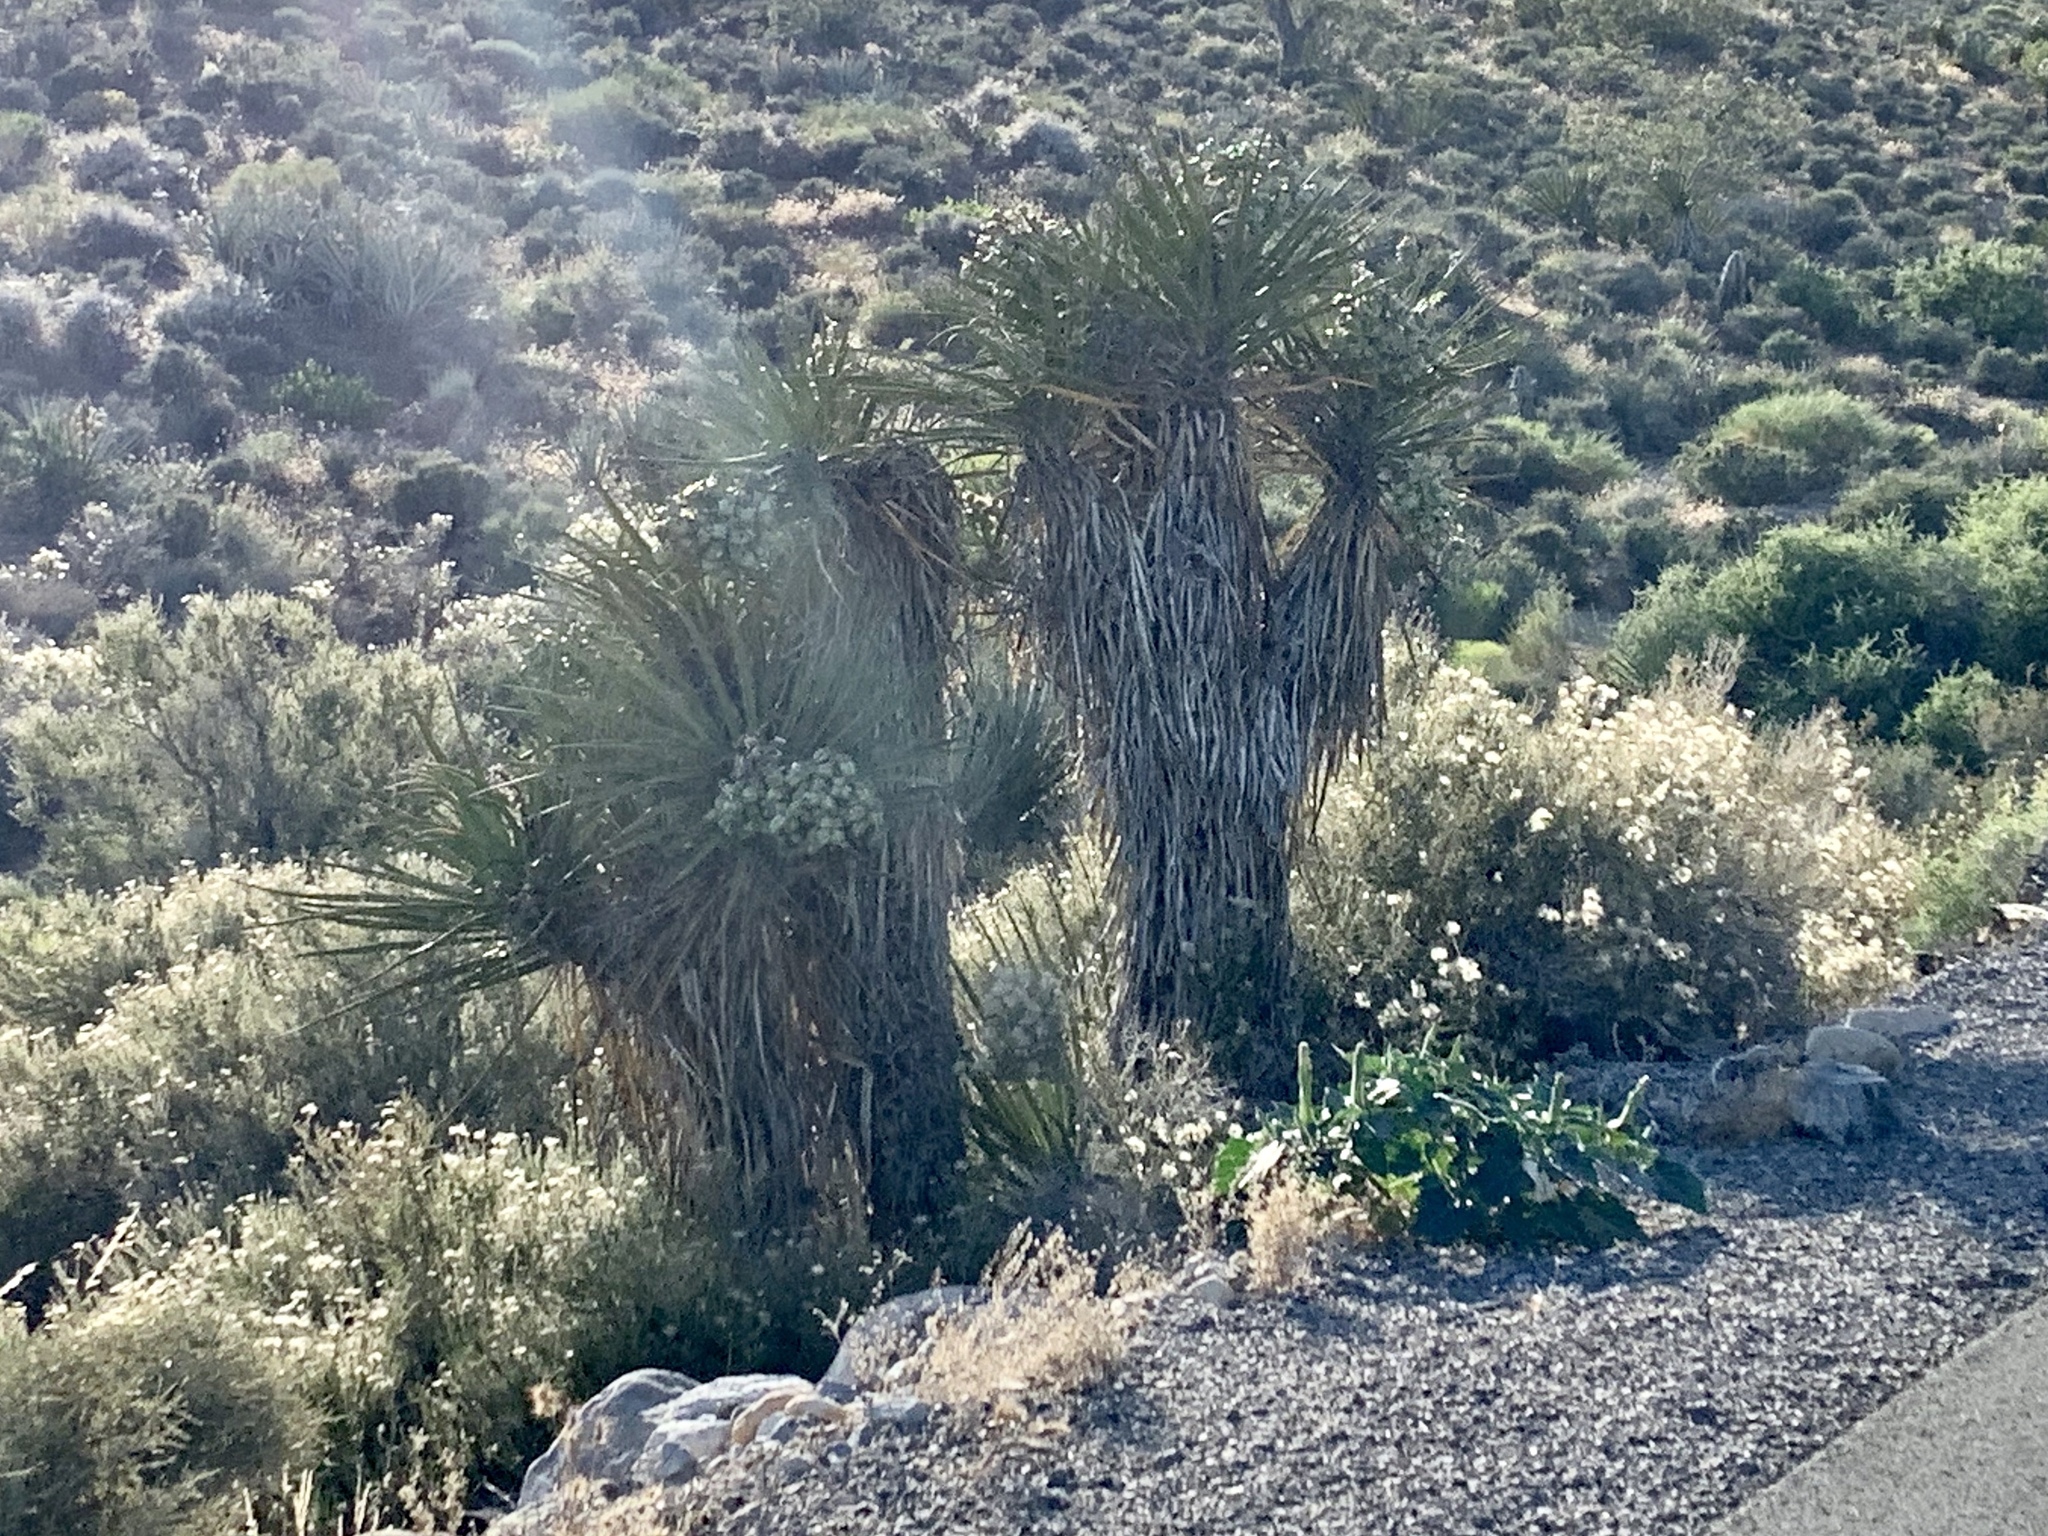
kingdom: Plantae
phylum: Tracheophyta
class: Liliopsida
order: Asparagales
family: Asparagaceae
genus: Yucca
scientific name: Yucca schidigera
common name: Mojave yucca
